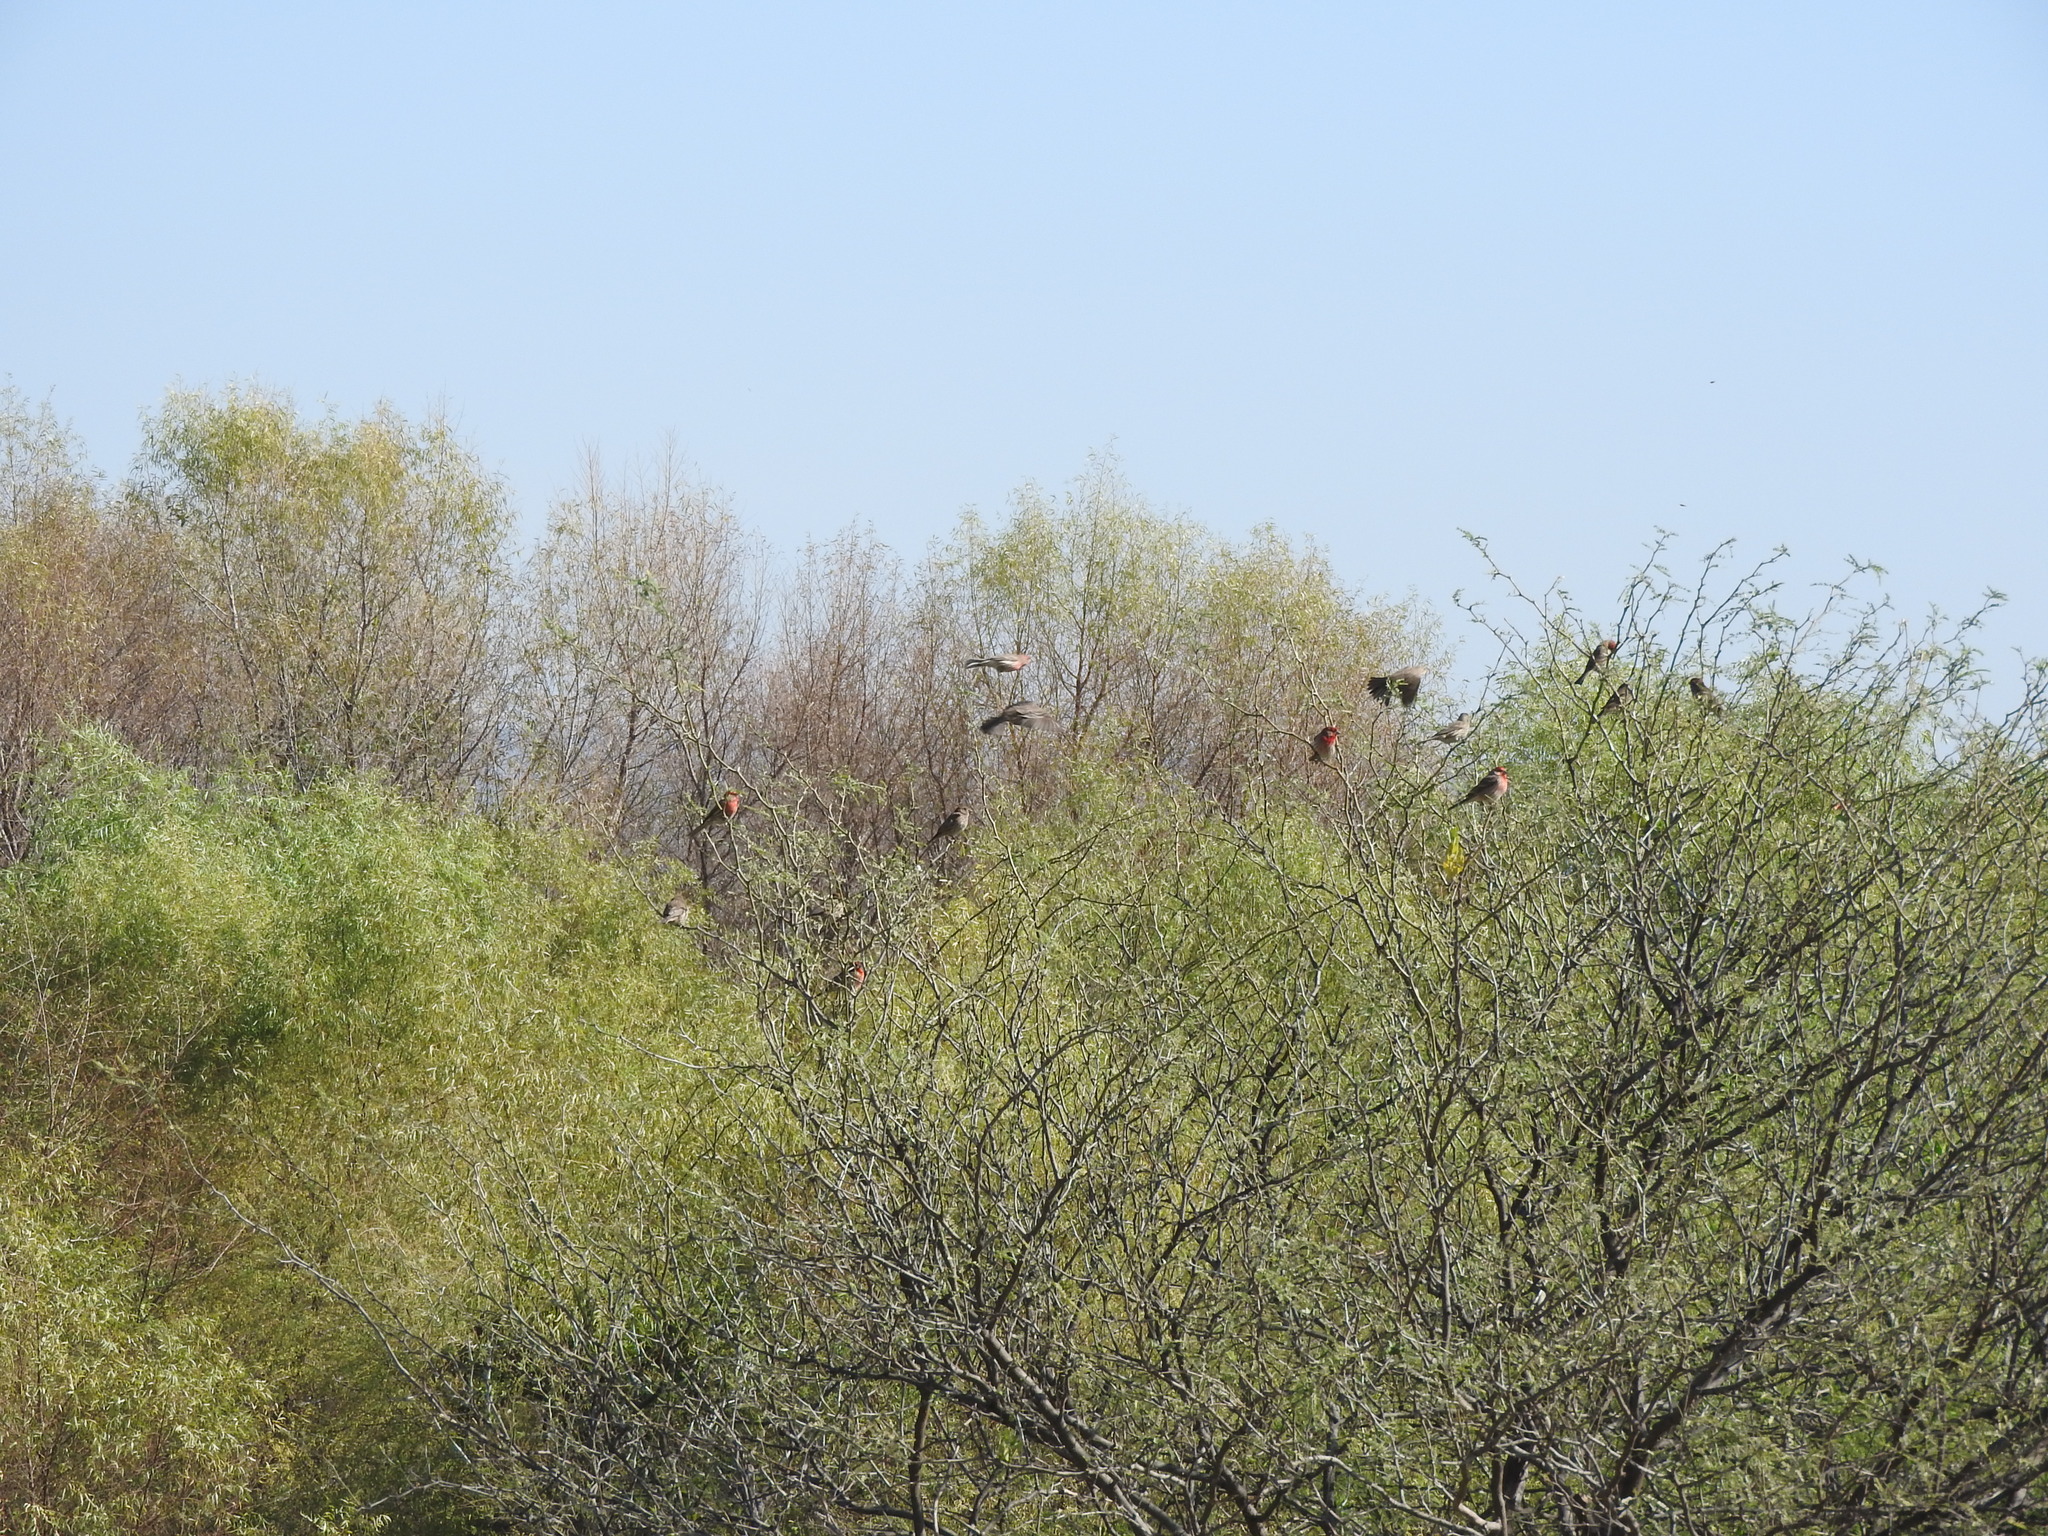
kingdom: Animalia
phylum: Chordata
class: Aves
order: Passeriformes
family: Fringillidae
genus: Haemorhous
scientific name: Haemorhous mexicanus
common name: House finch
